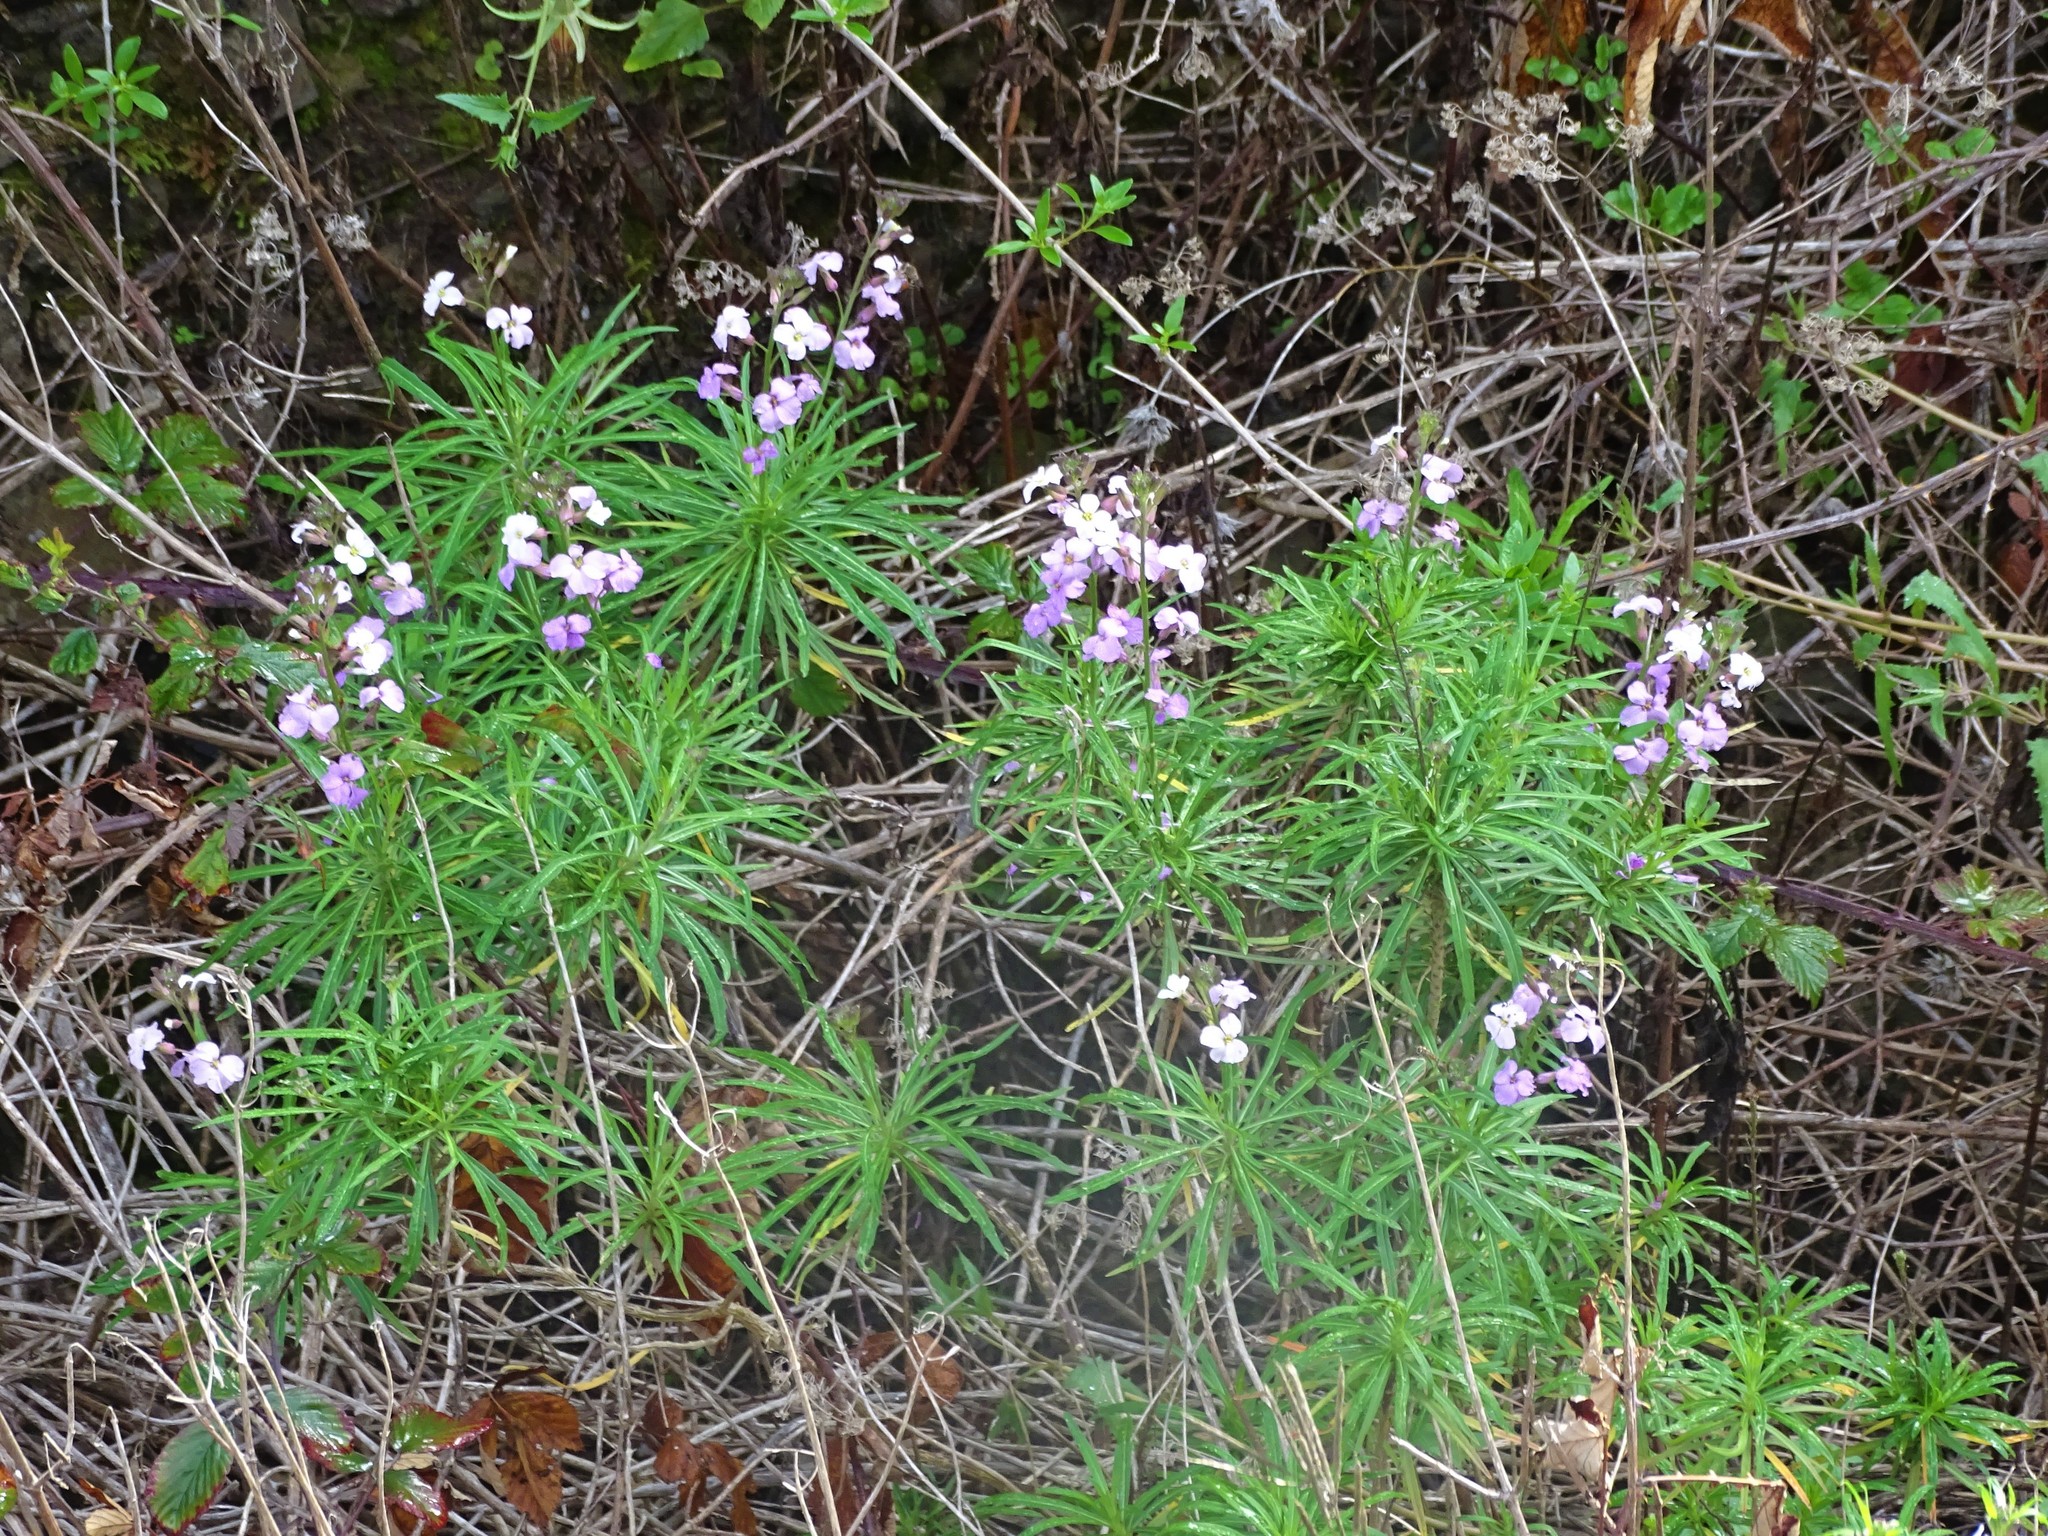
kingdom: Plantae
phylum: Tracheophyta
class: Magnoliopsida
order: Brassicales
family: Brassicaceae
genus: Erysimum
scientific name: Erysimum bicolor
